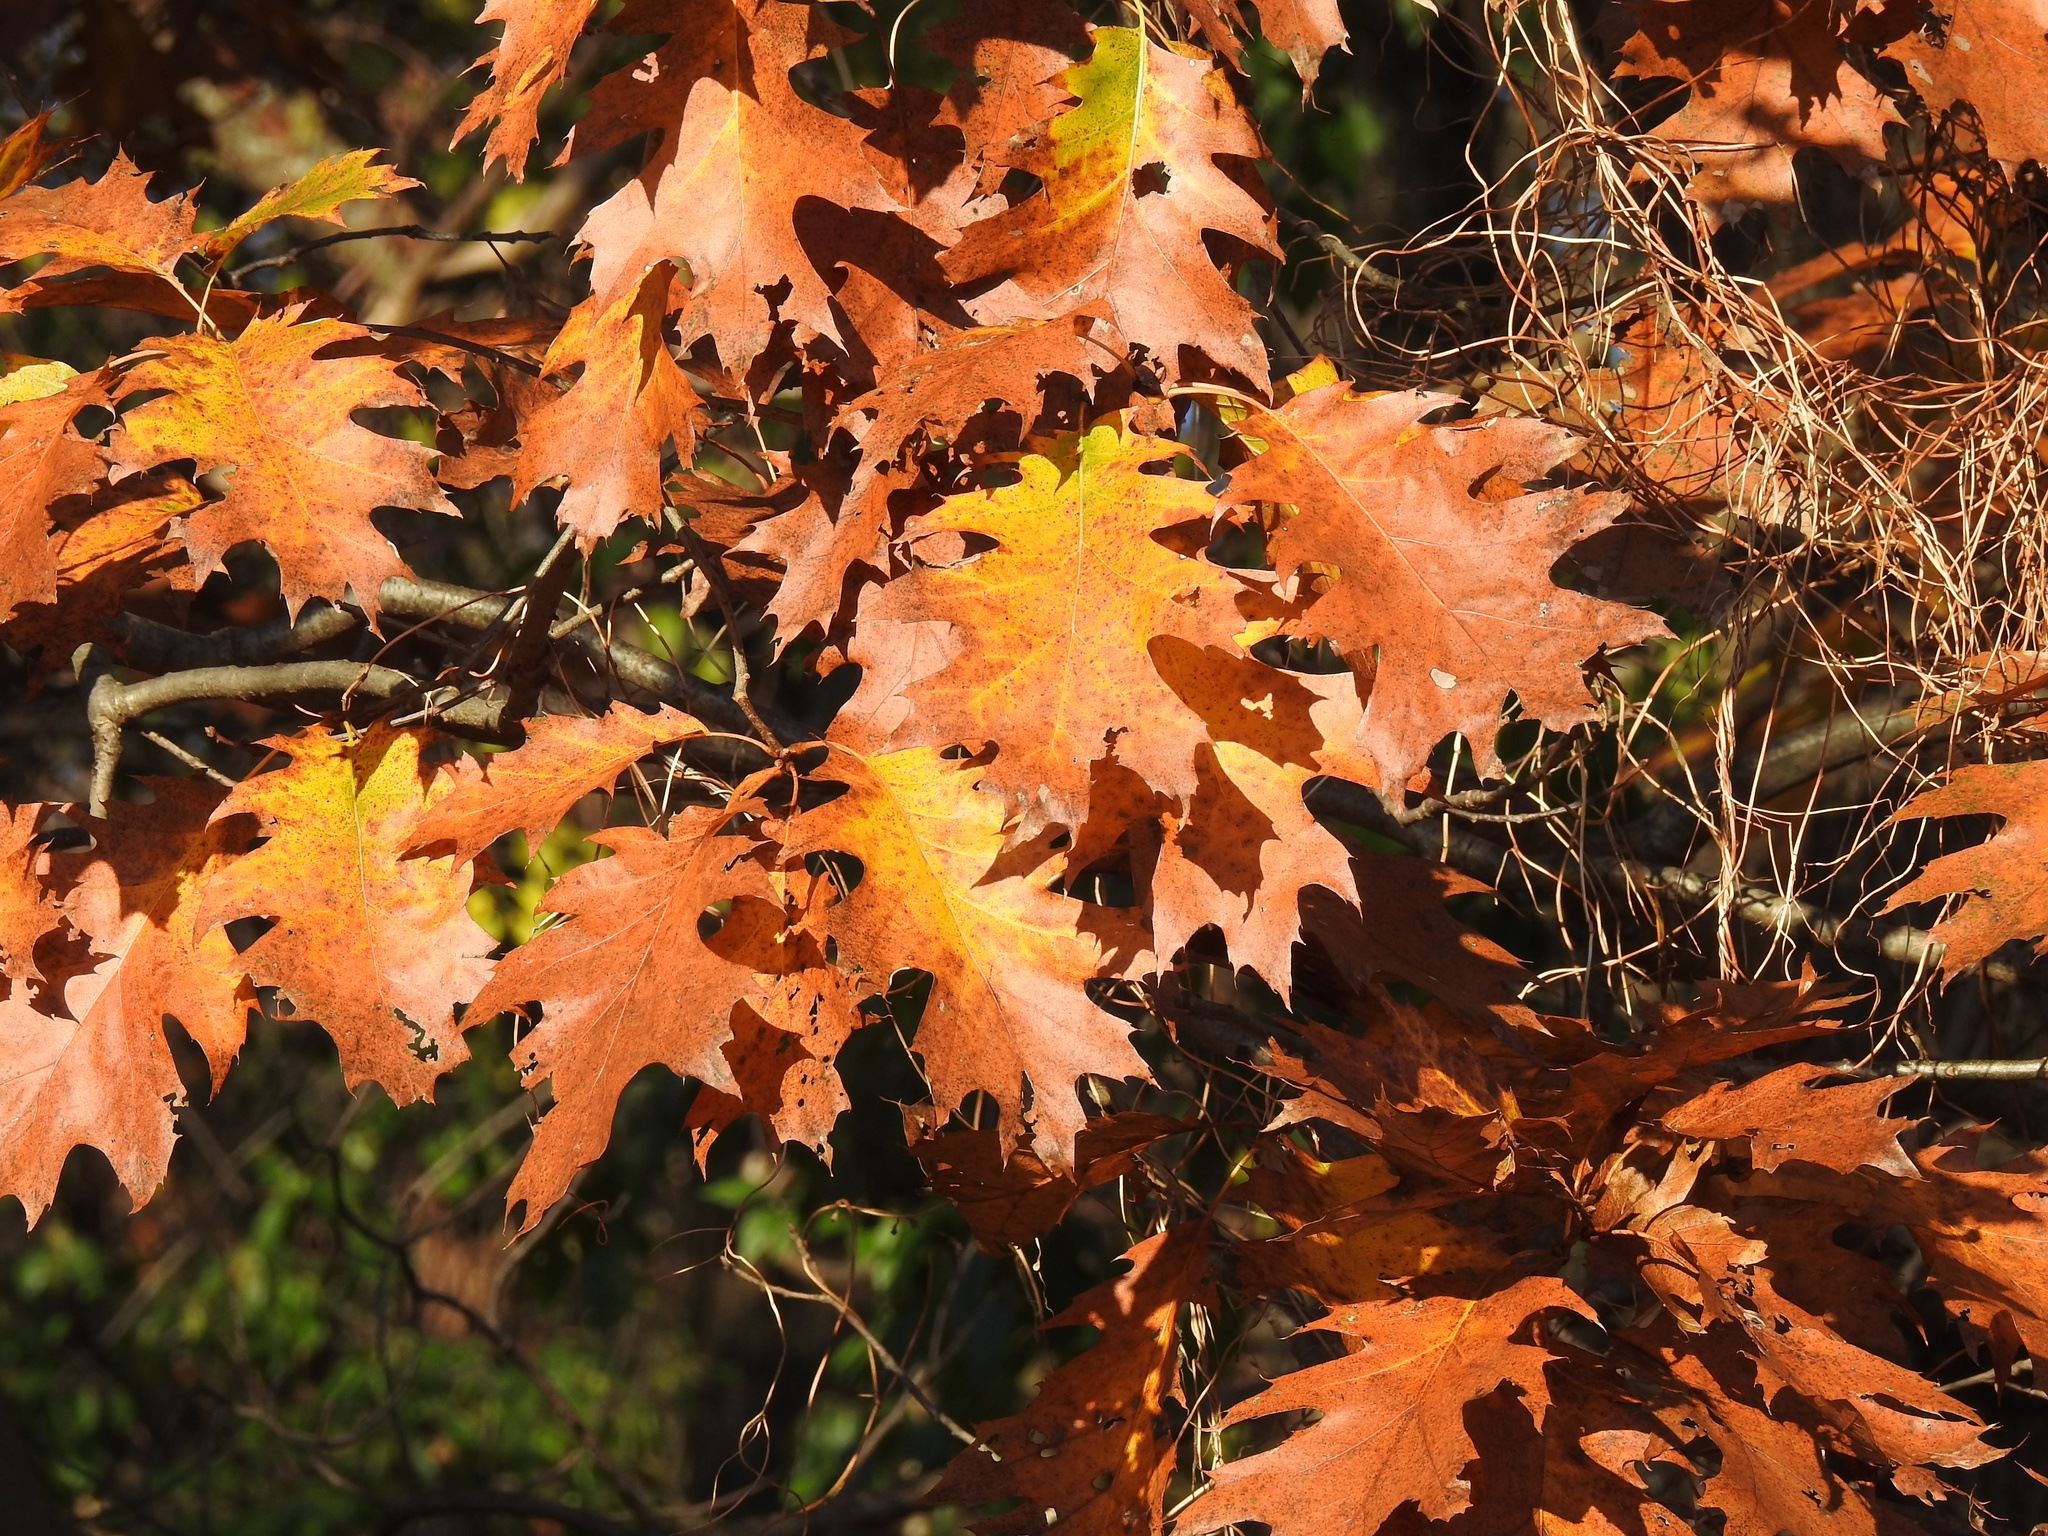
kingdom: Plantae
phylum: Tracheophyta
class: Magnoliopsida
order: Fagales
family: Fagaceae
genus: Quercus
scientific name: Quercus rubra
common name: Red oak
